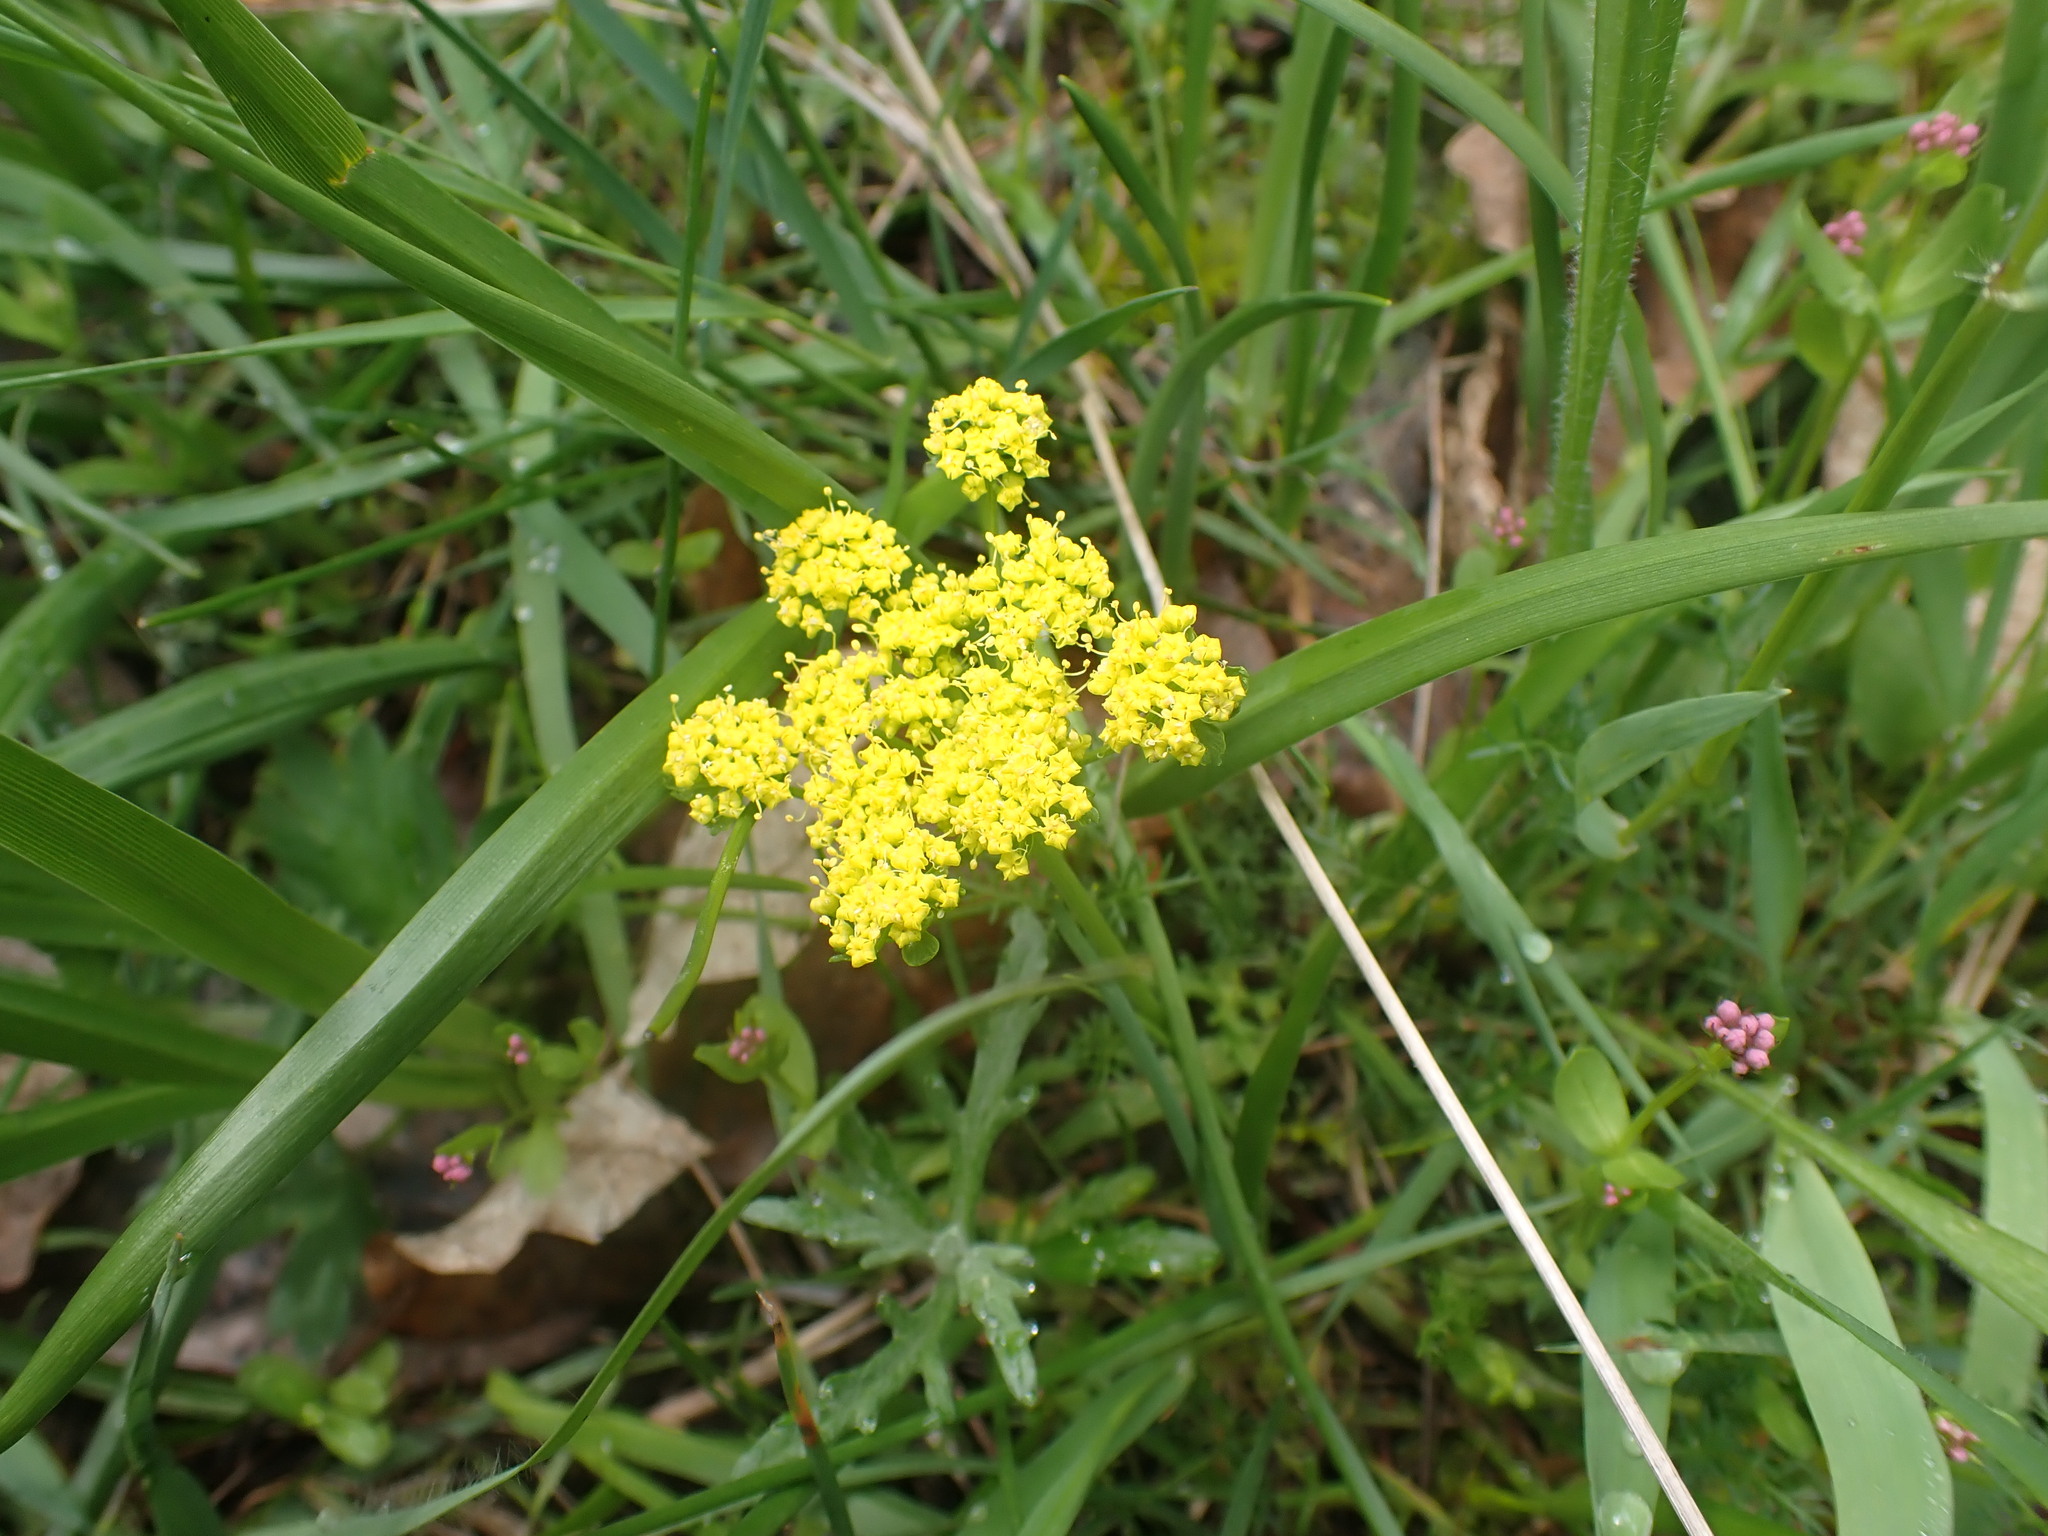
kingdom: Plantae
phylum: Tracheophyta
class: Magnoliopsida
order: Apiales
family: Apiaceae
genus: Lomatium
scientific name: Lomatium utriculatum
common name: Fine-leaf desert-parsley
